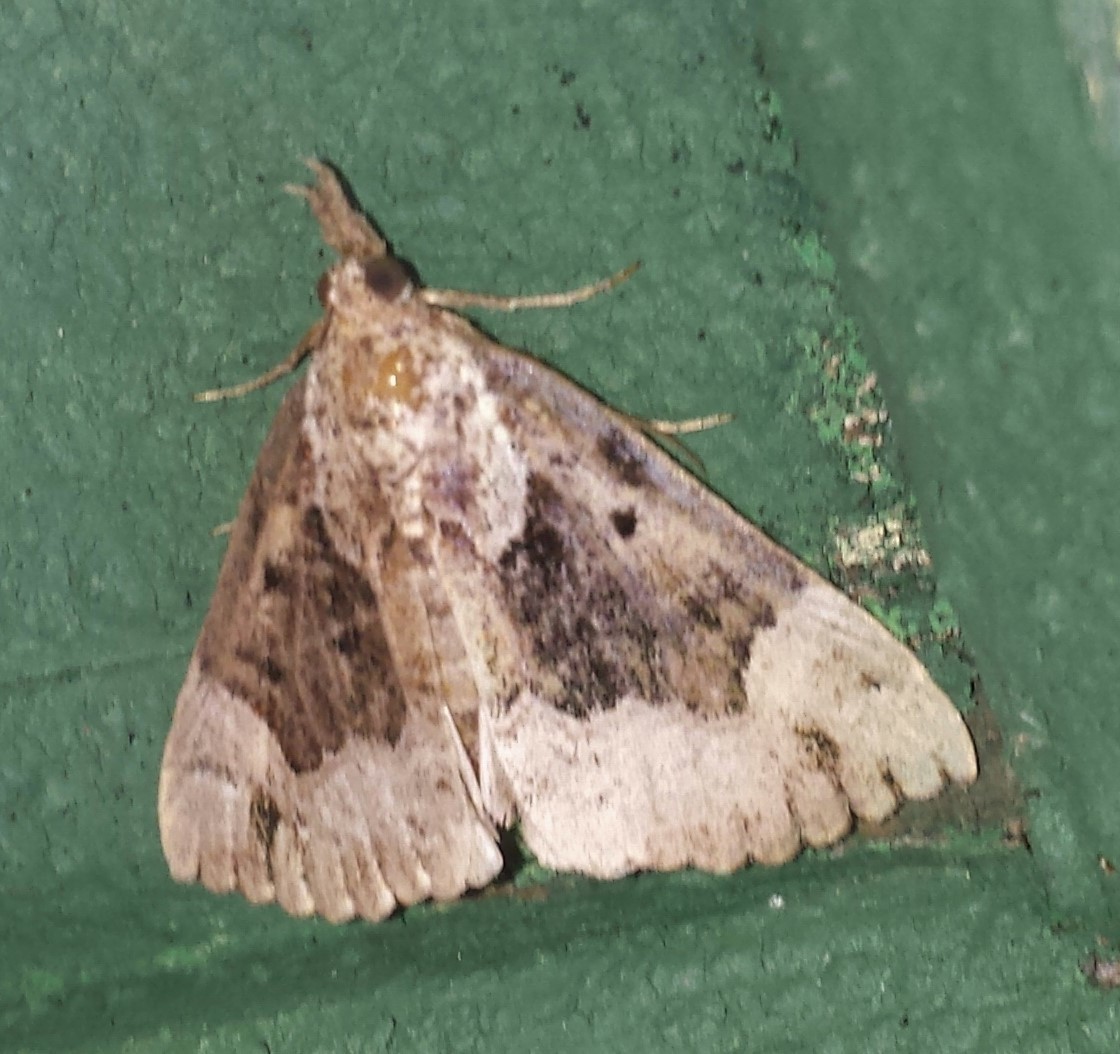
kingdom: Animalia
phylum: Arthropoda
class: Insecta
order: Lepidoptera
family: Erebidae
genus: Hypena
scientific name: Hypena palparia
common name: Mottled bomolocha moth
